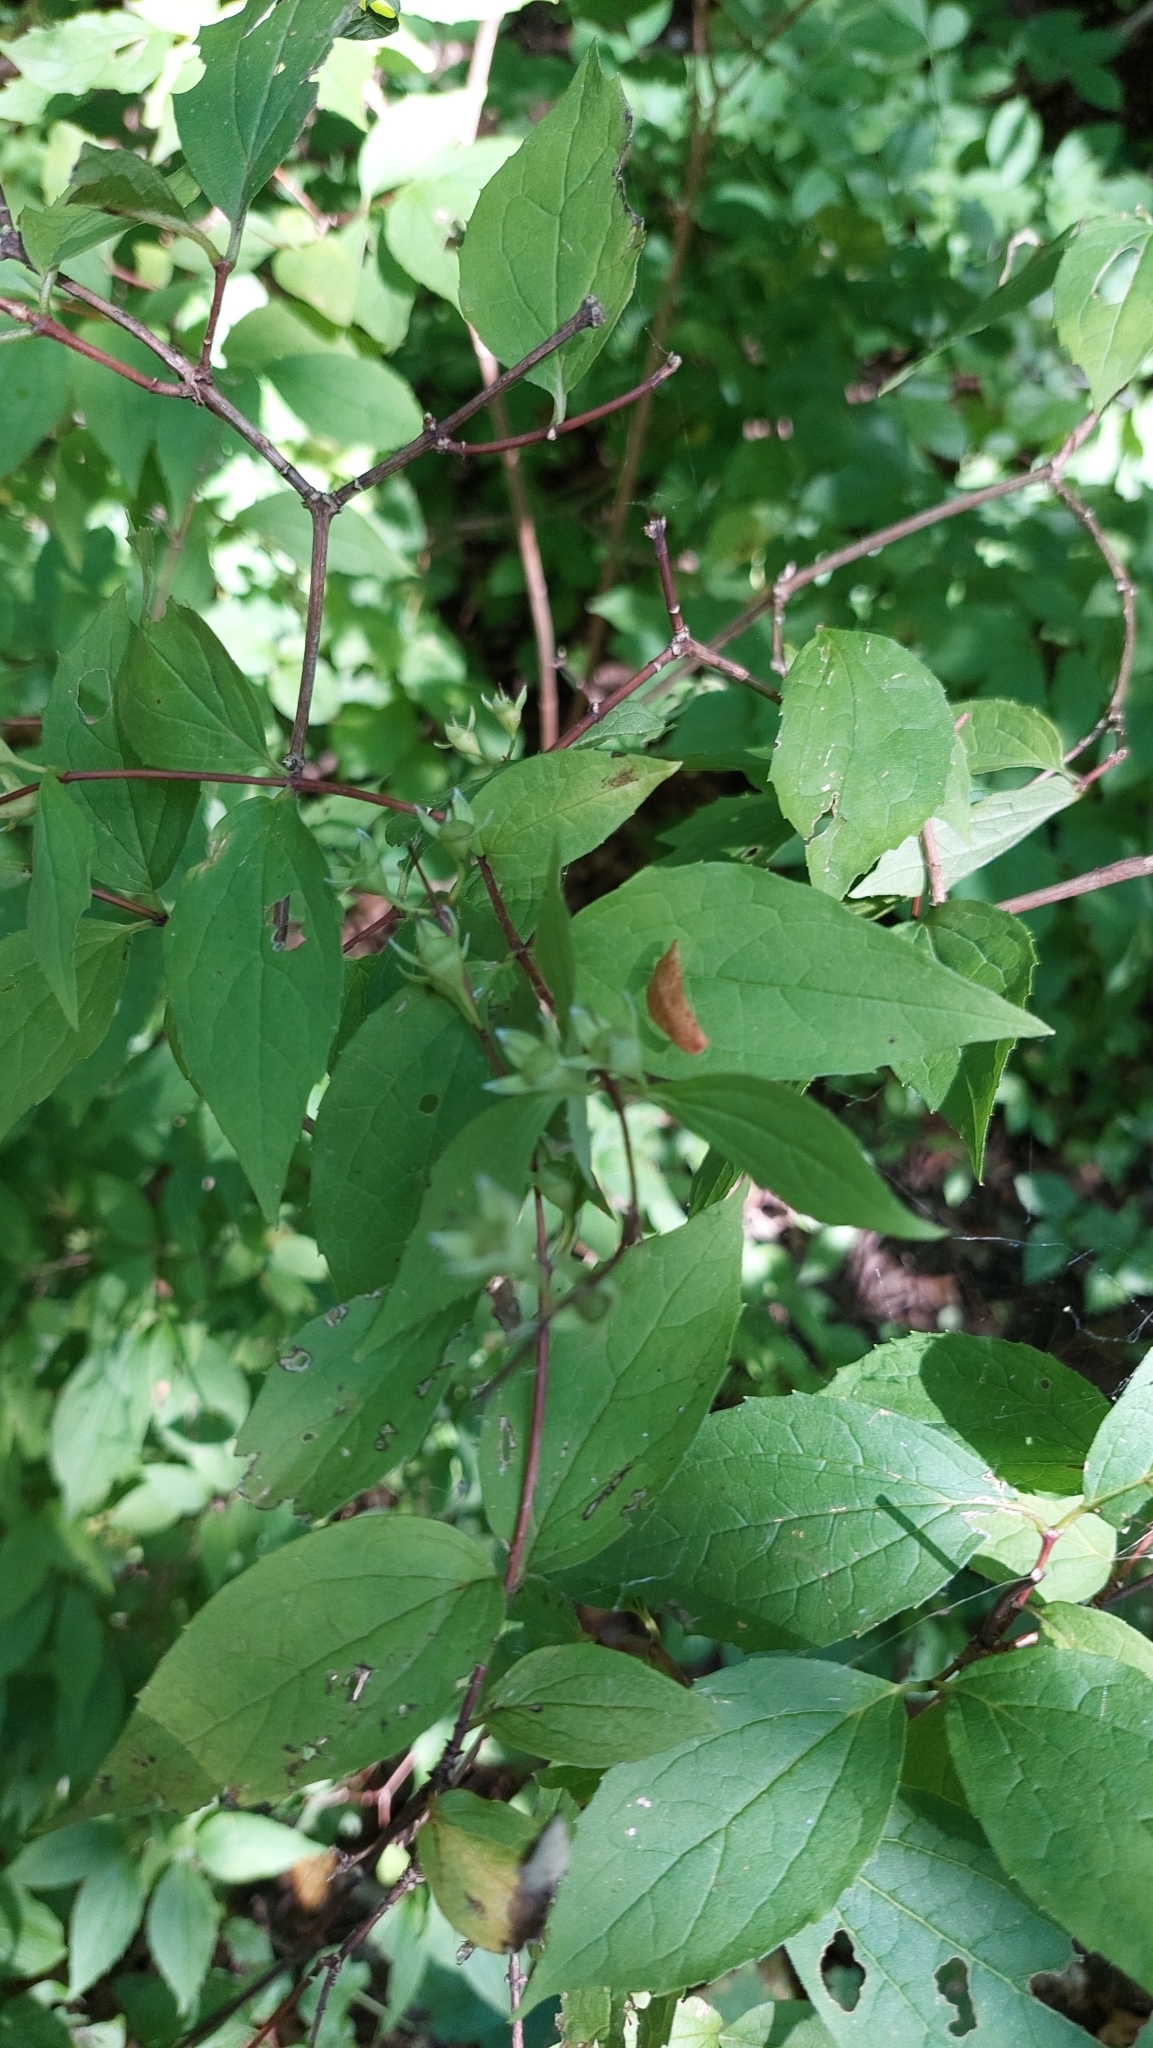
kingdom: Plantae
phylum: Tracheophyta
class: Magnoliopsida
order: Cornales
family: Hydrangeaceae
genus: Philadelphus
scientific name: Philadelphus coronarius
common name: Mock orange
